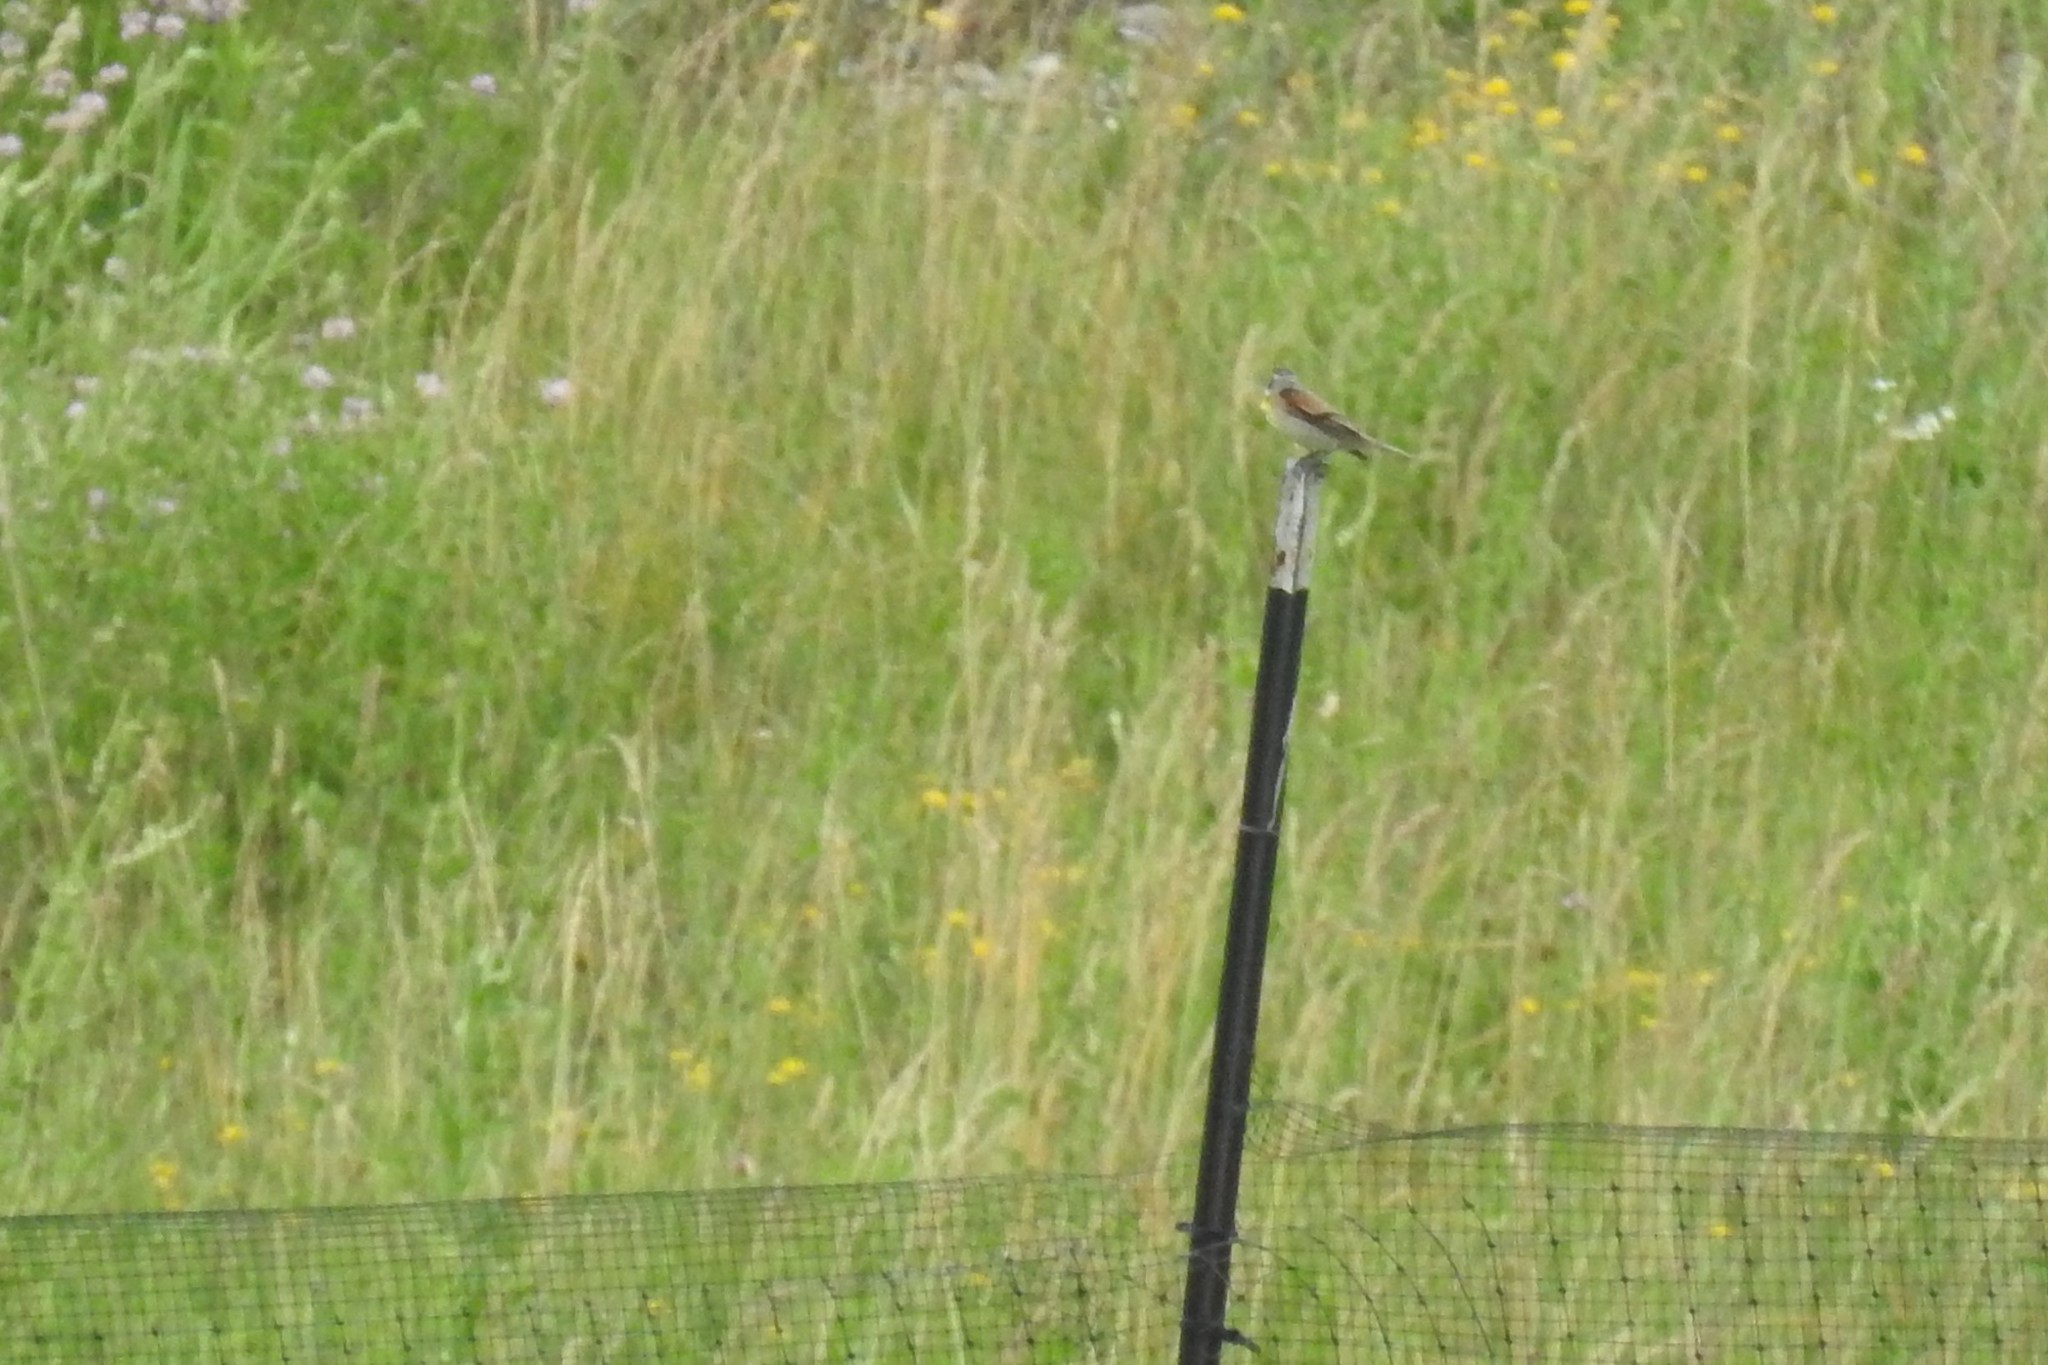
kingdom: Animalia
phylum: Chordata
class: Aves
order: Passeriformes
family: Cardinalidae
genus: Spiza
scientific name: Spiza americana
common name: Dickcissel
